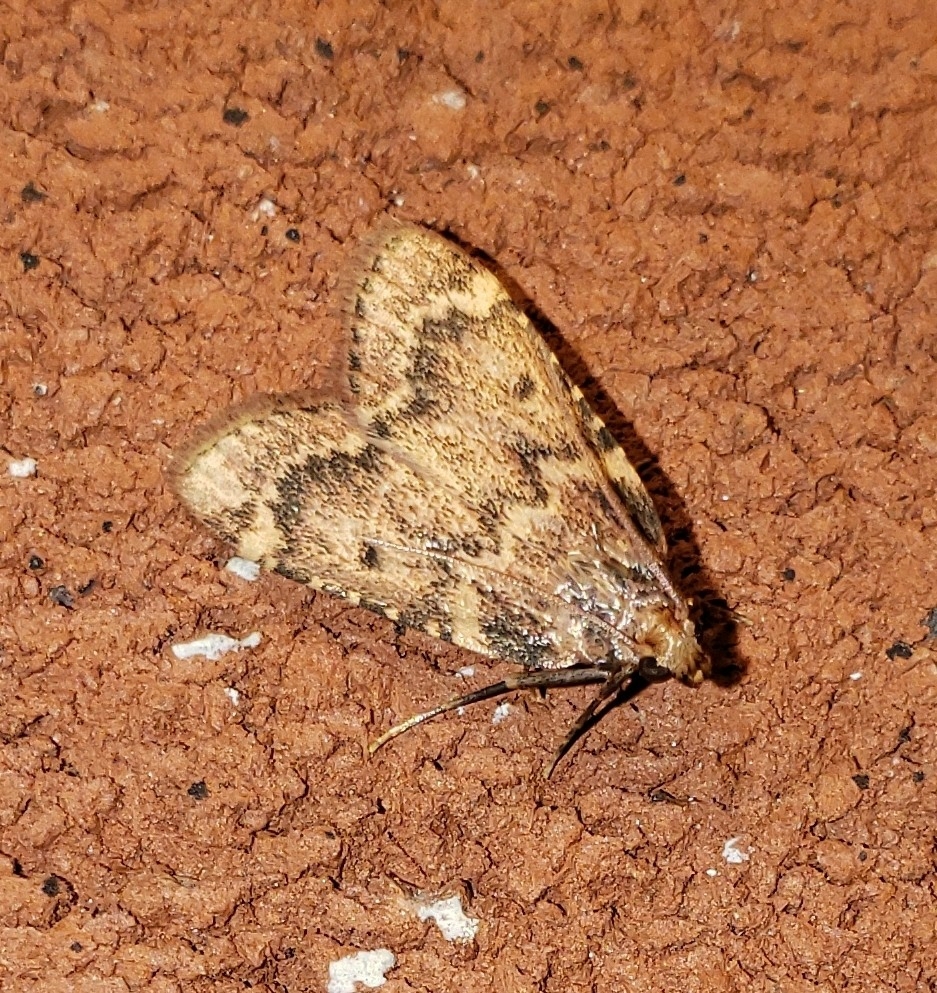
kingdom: Animalia
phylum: Arthropoda
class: Insecta
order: Lepidoptera
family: Pyralidae
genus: Aglossa
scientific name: Aglossa disciferalis
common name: Pink-masked pyralid moth
